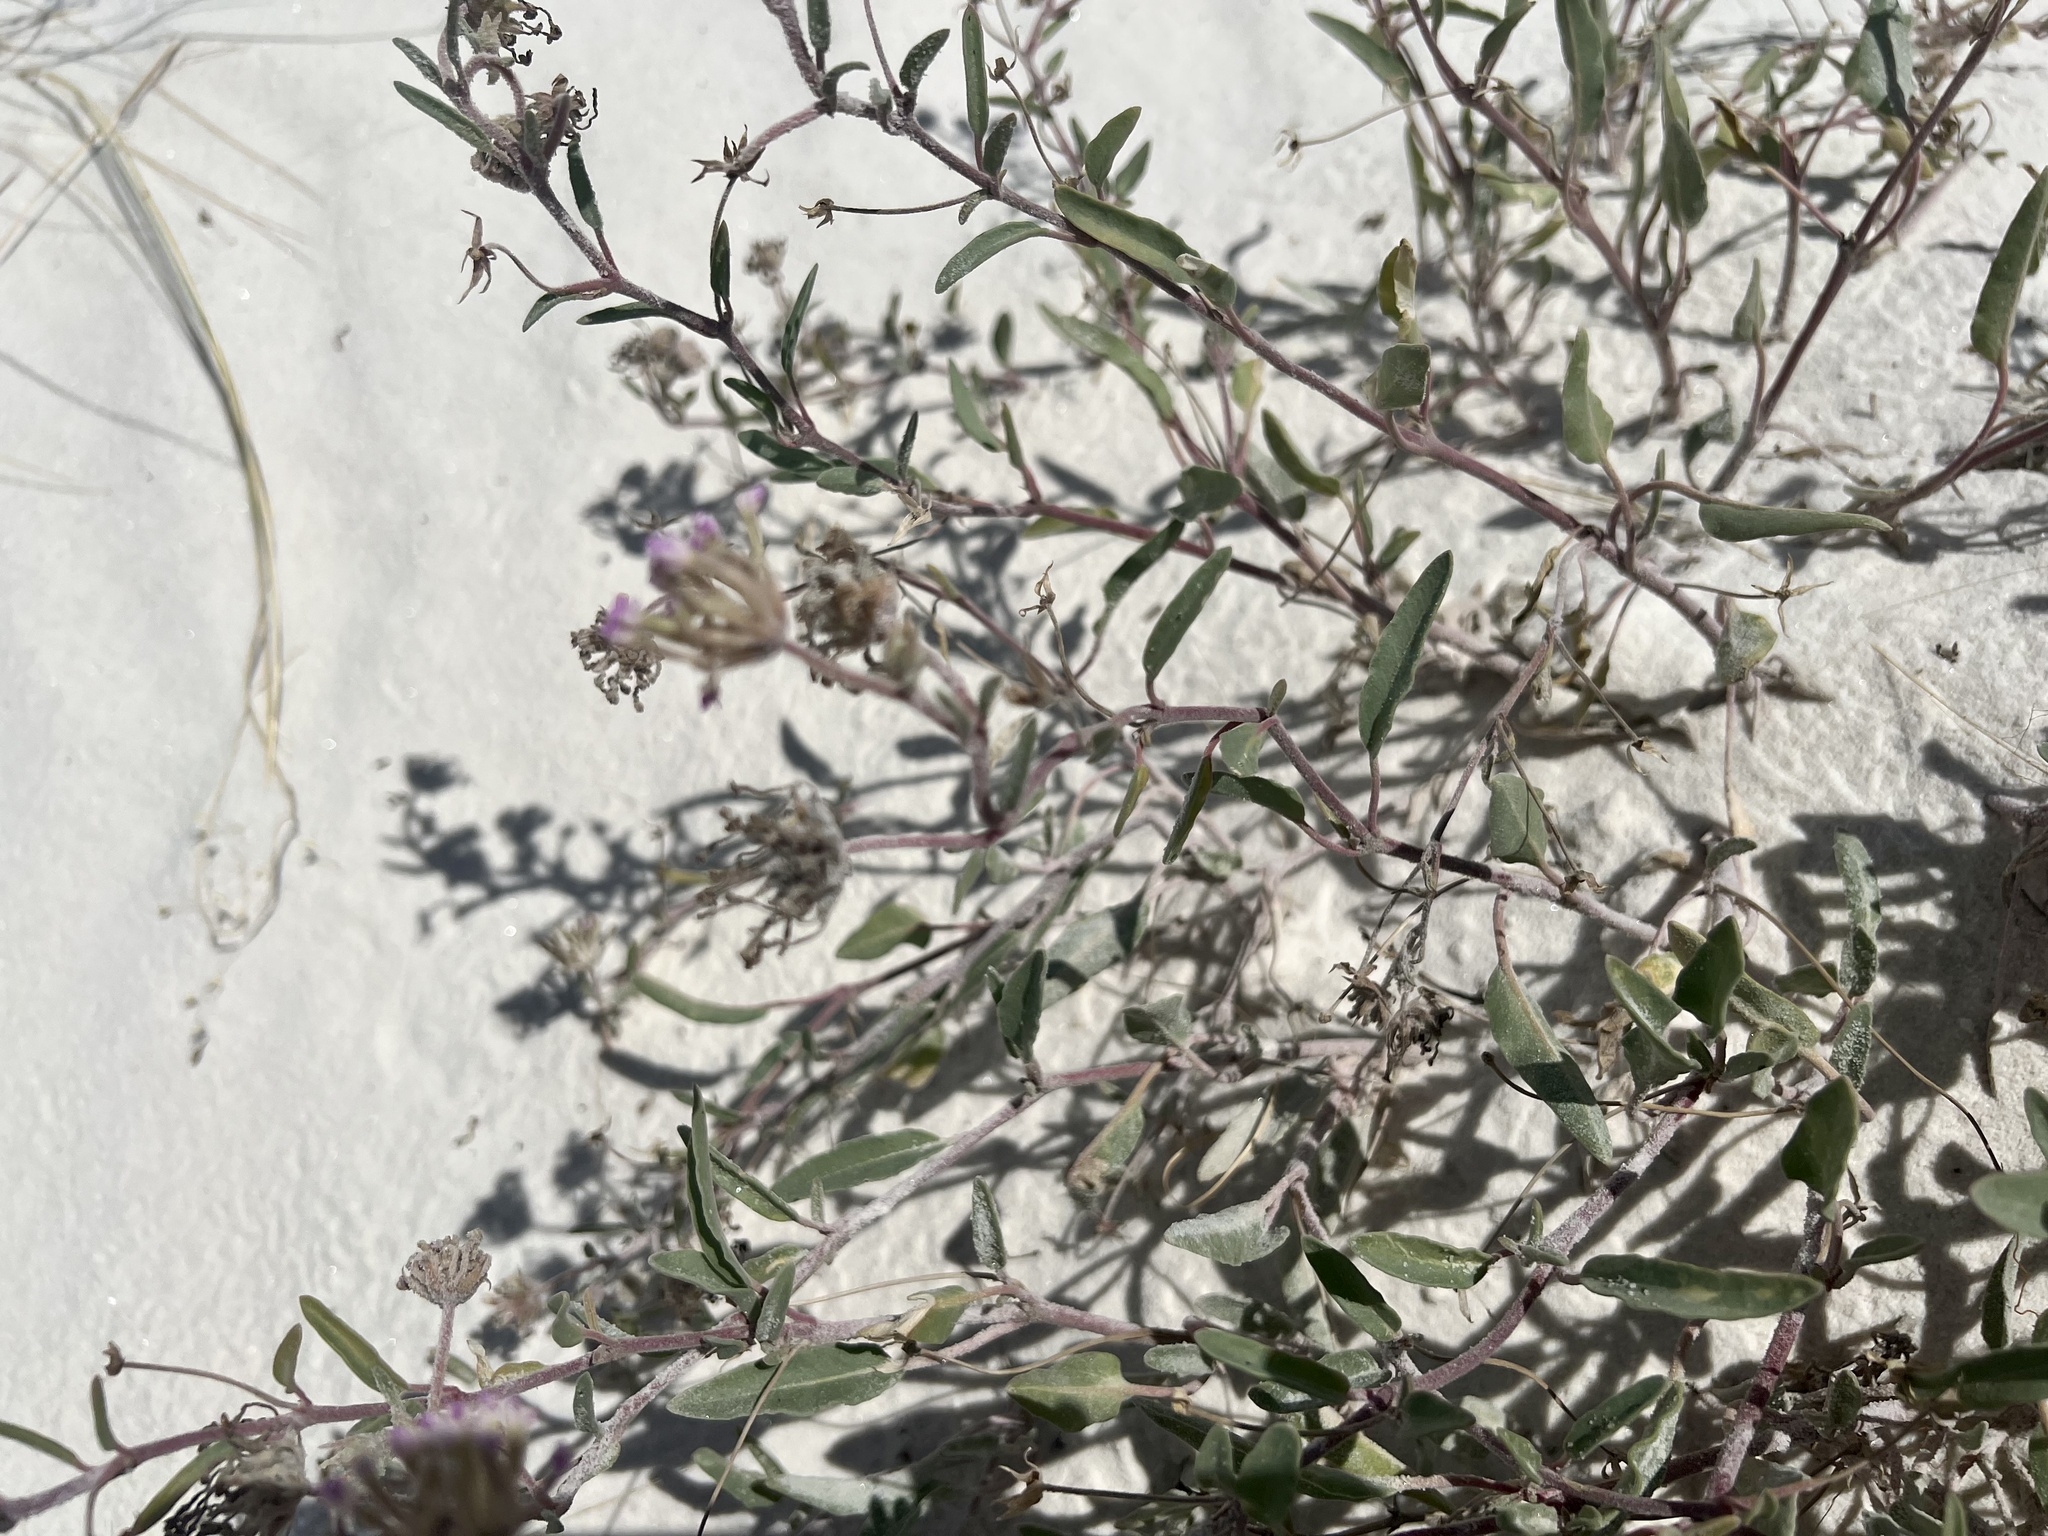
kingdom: Plantae
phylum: Tracheophyta
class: Magnoliopsida
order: Caryophyllales
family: Nyctaginaceae
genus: Abronia
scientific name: Abronia angustifolia
